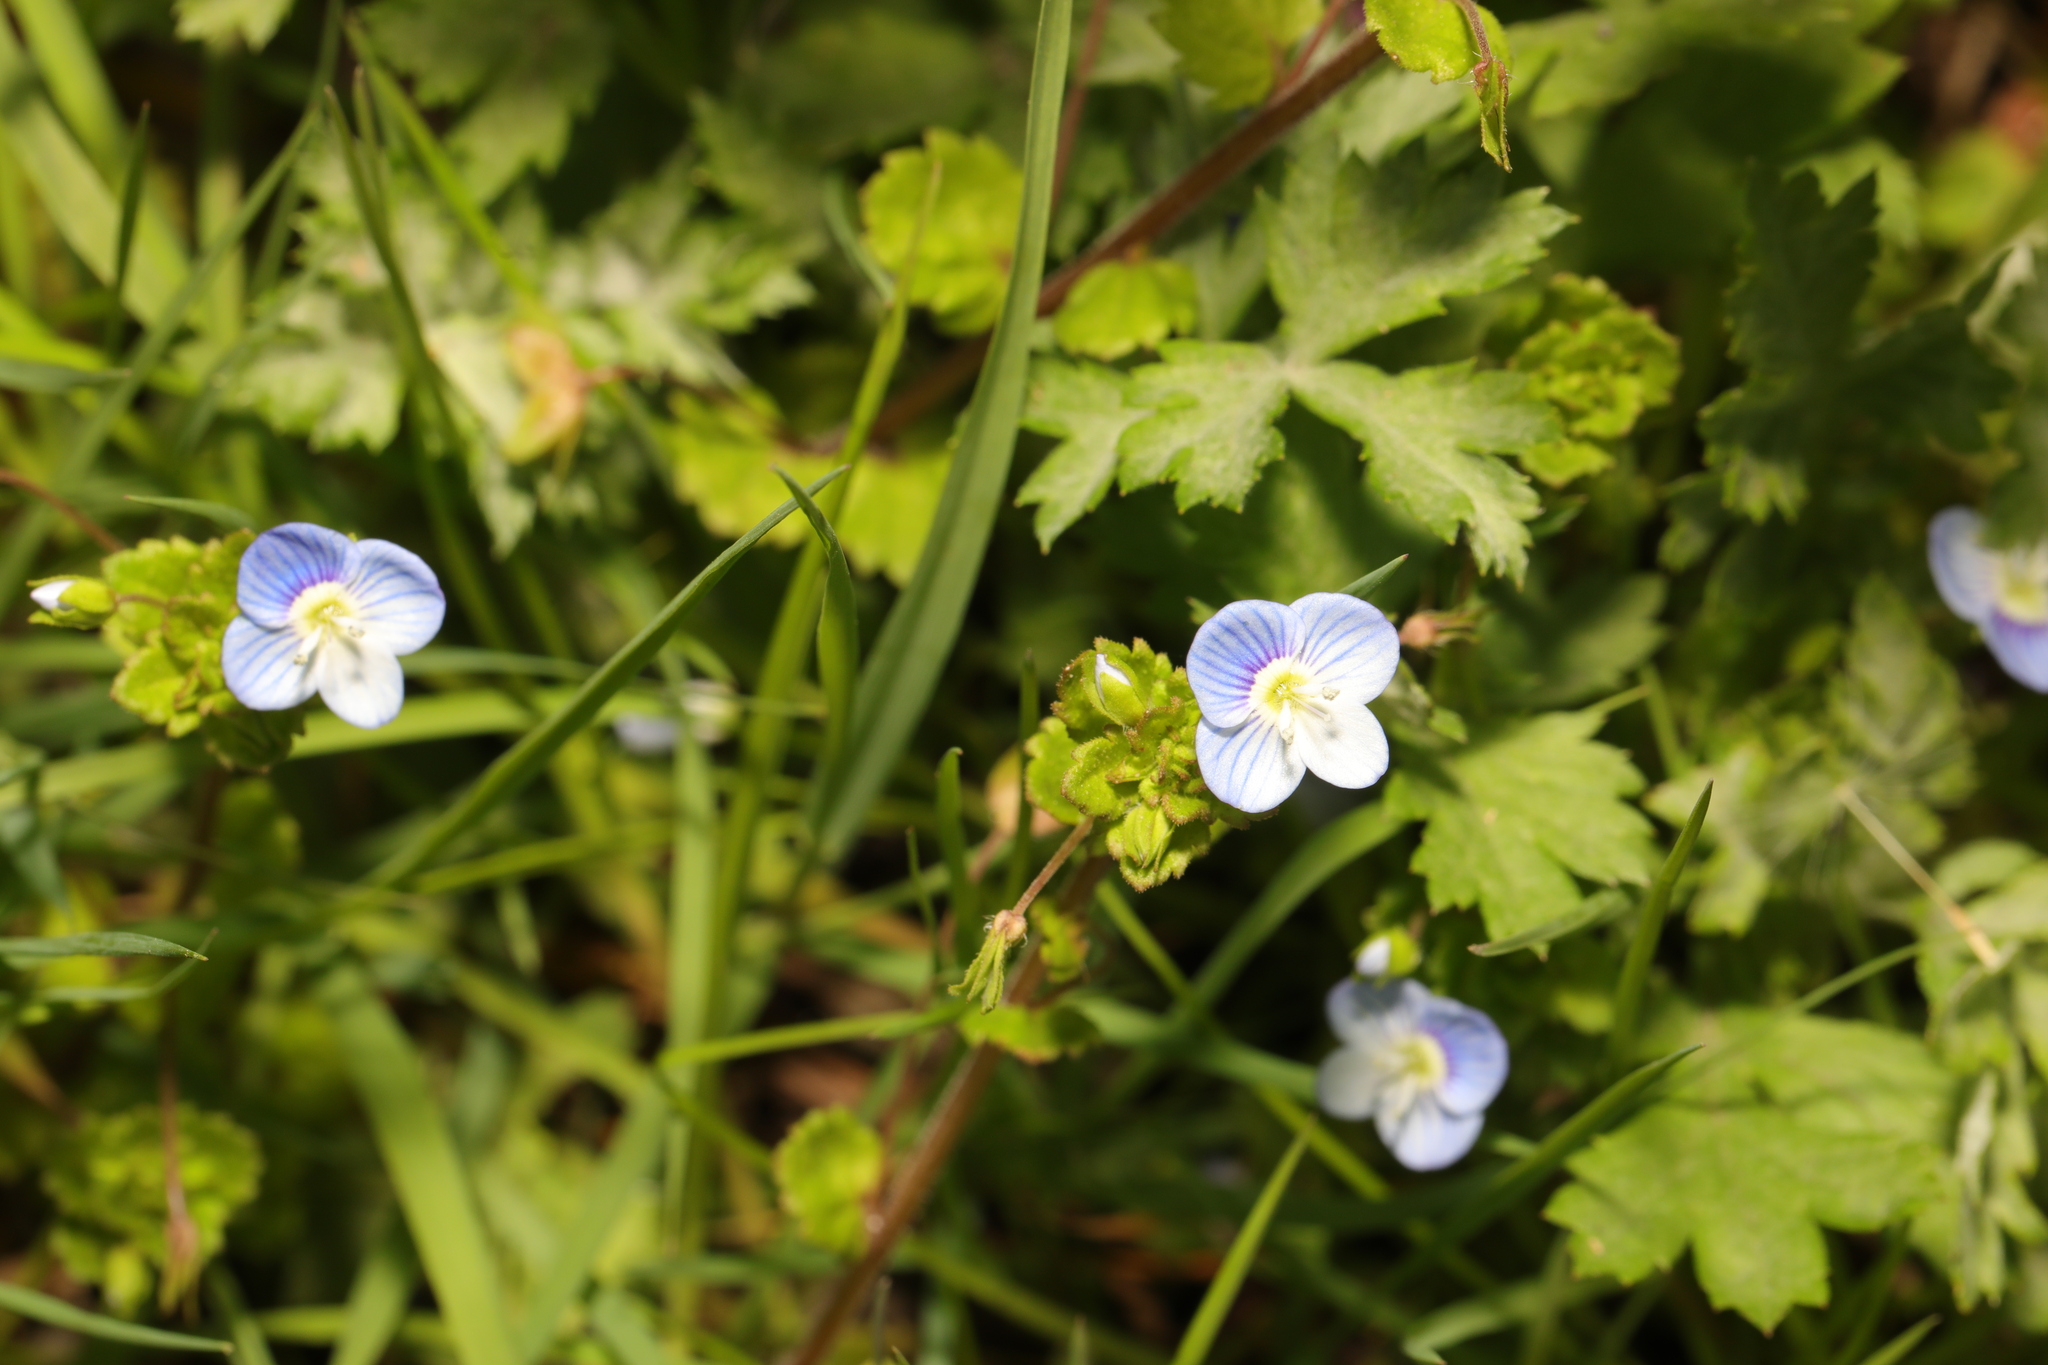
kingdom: Plantae
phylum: Tracheophyta
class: Magnoliopsida
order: Lamiales
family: Plantaginaceae
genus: Veronica
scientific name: Veronica persica
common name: Common field-speedwell
